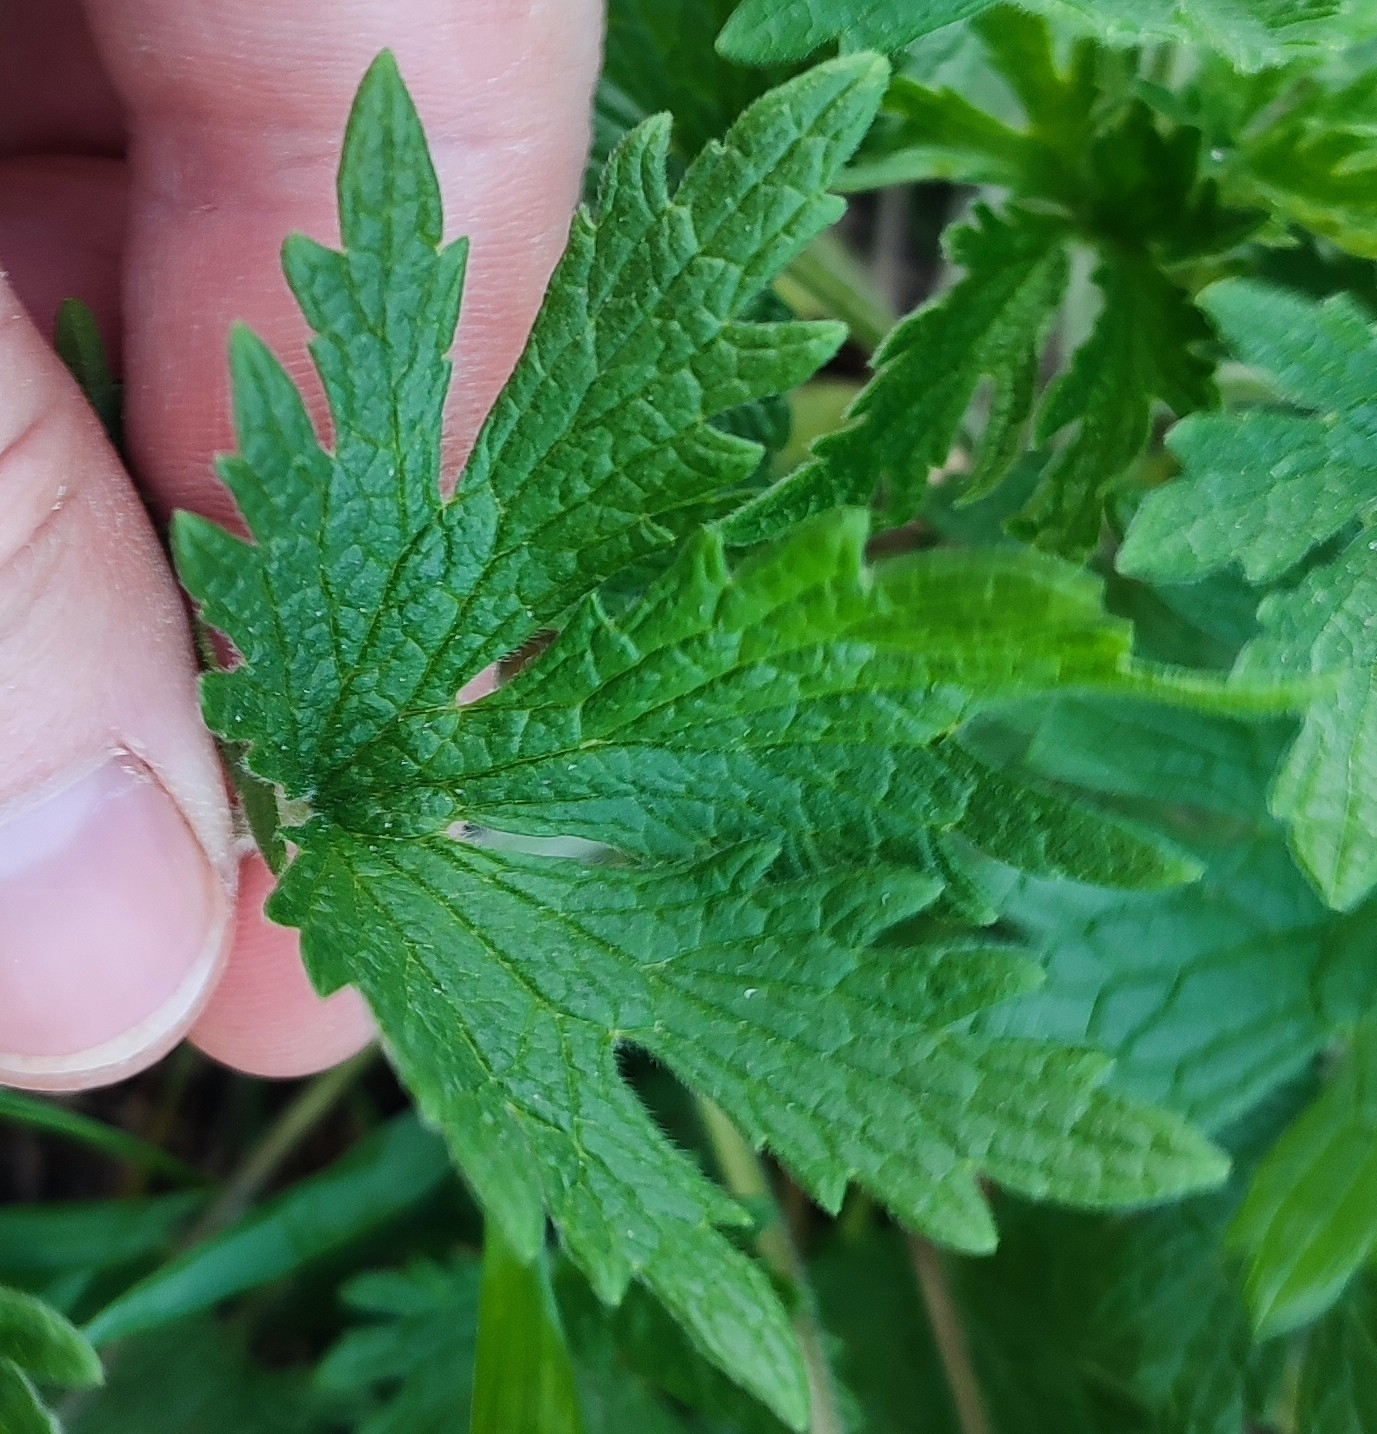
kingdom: Plantae
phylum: Tracheophyta
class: Magnoliopsida
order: Lamiales
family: Lamiaceae
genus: Leonurus
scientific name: Leonurus quinquelobatus
